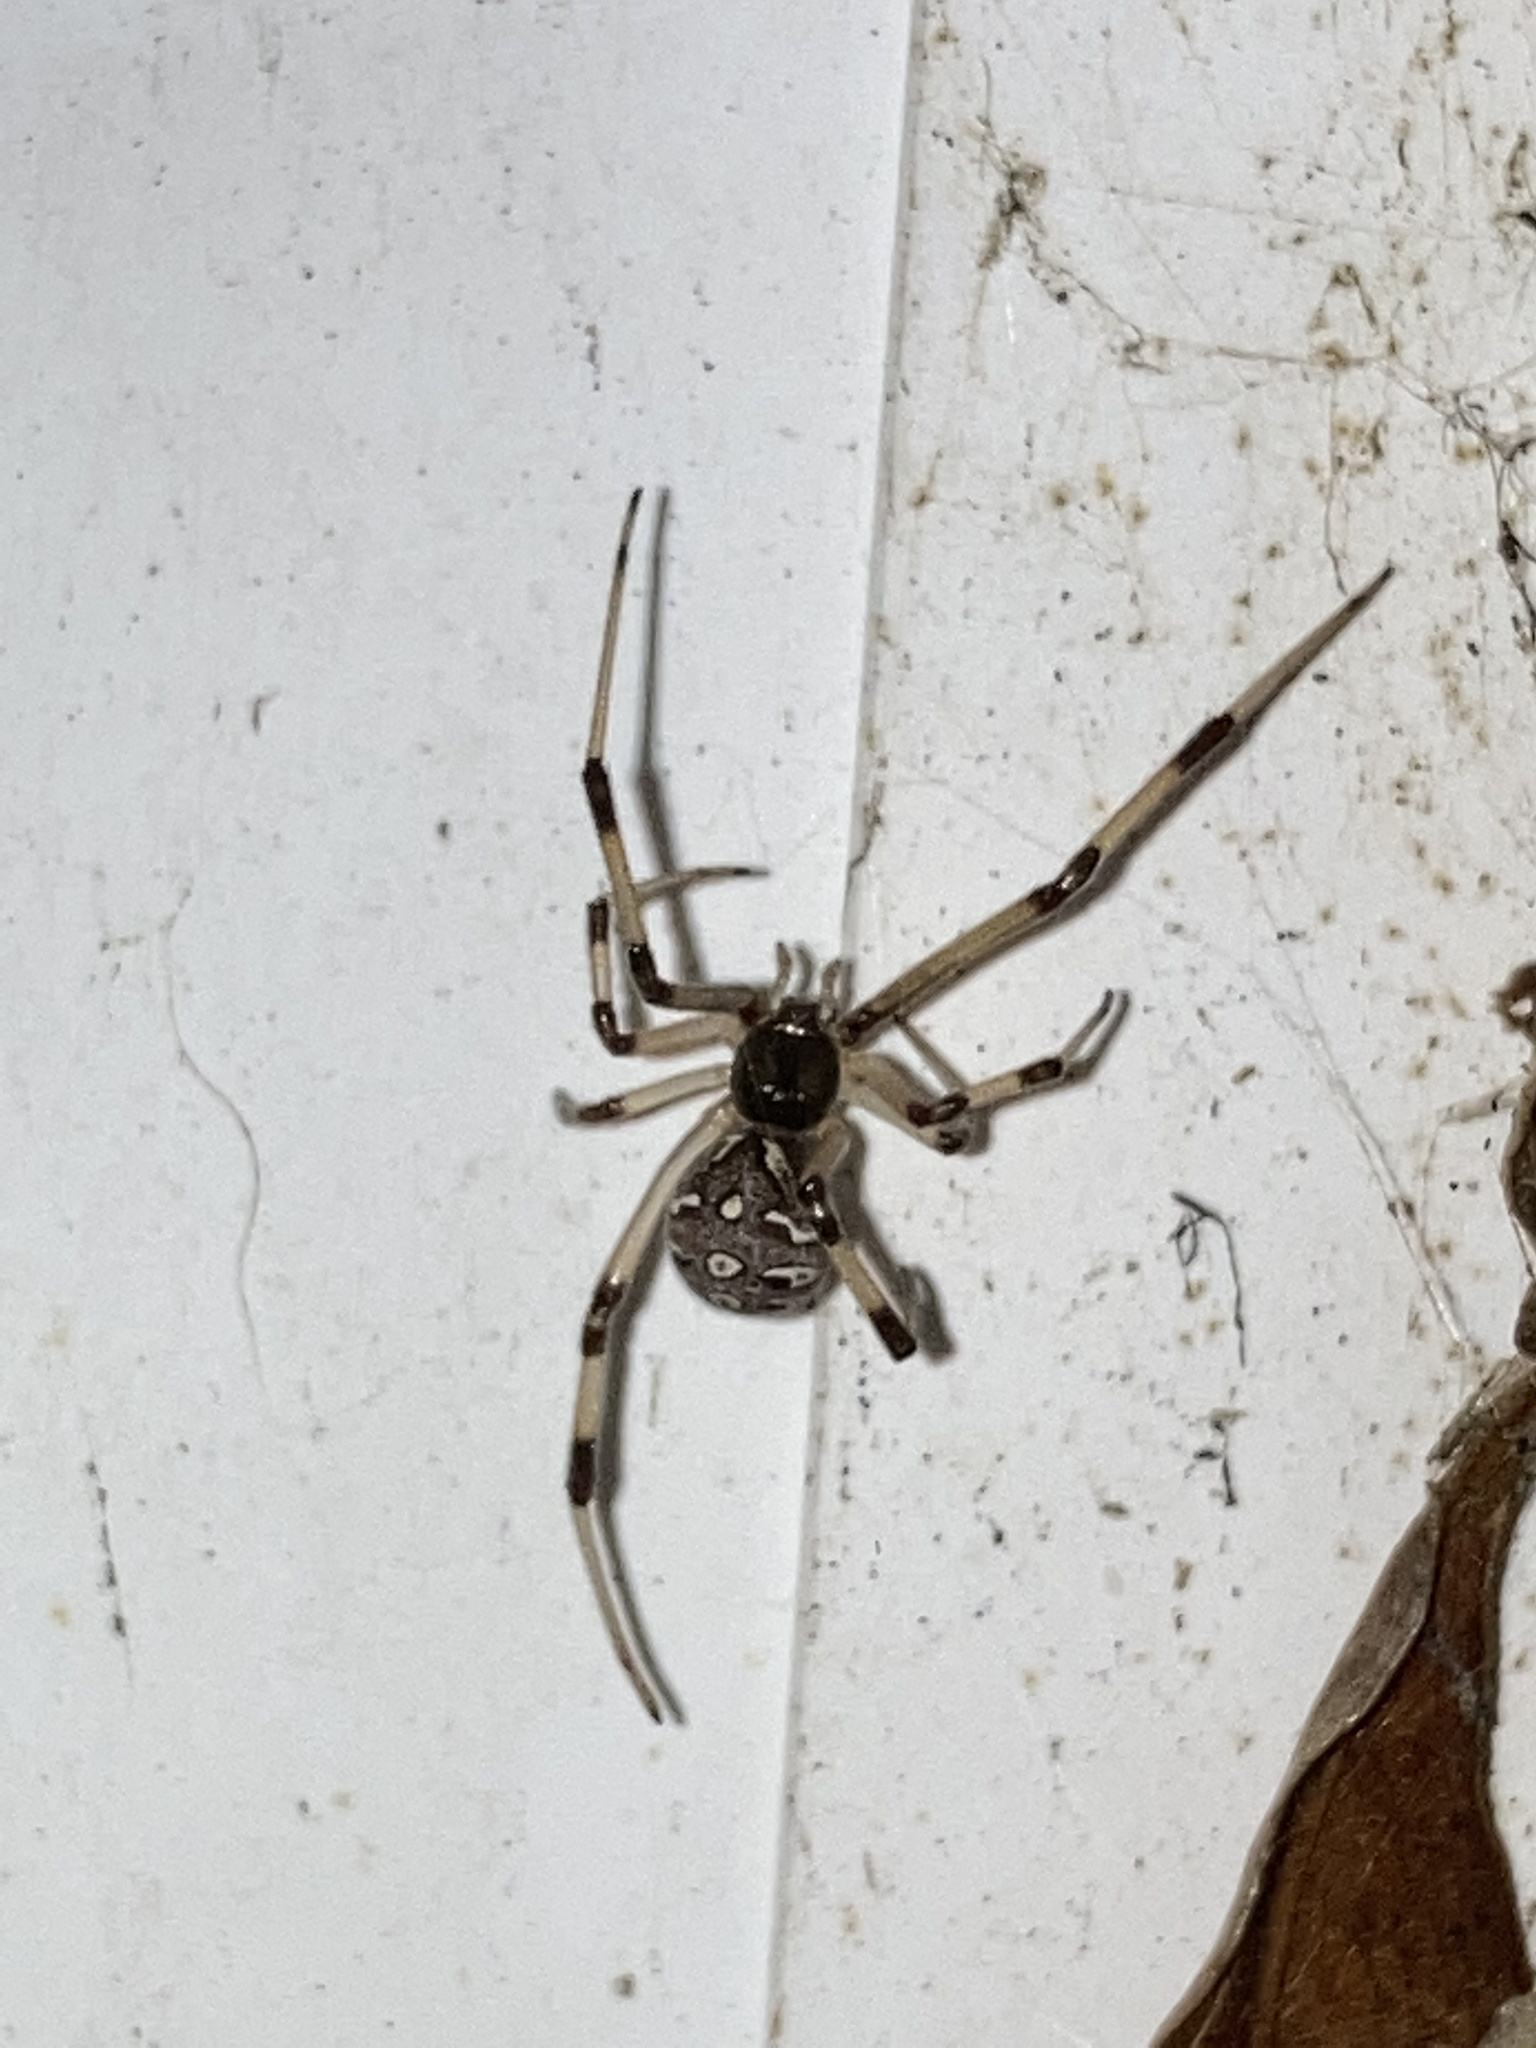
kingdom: Animalia
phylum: Arthropoda
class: Arachnida
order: Araneae
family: Theridiidae
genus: Latrodectus
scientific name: Latrodectus geometricus
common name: Brown widow spider
